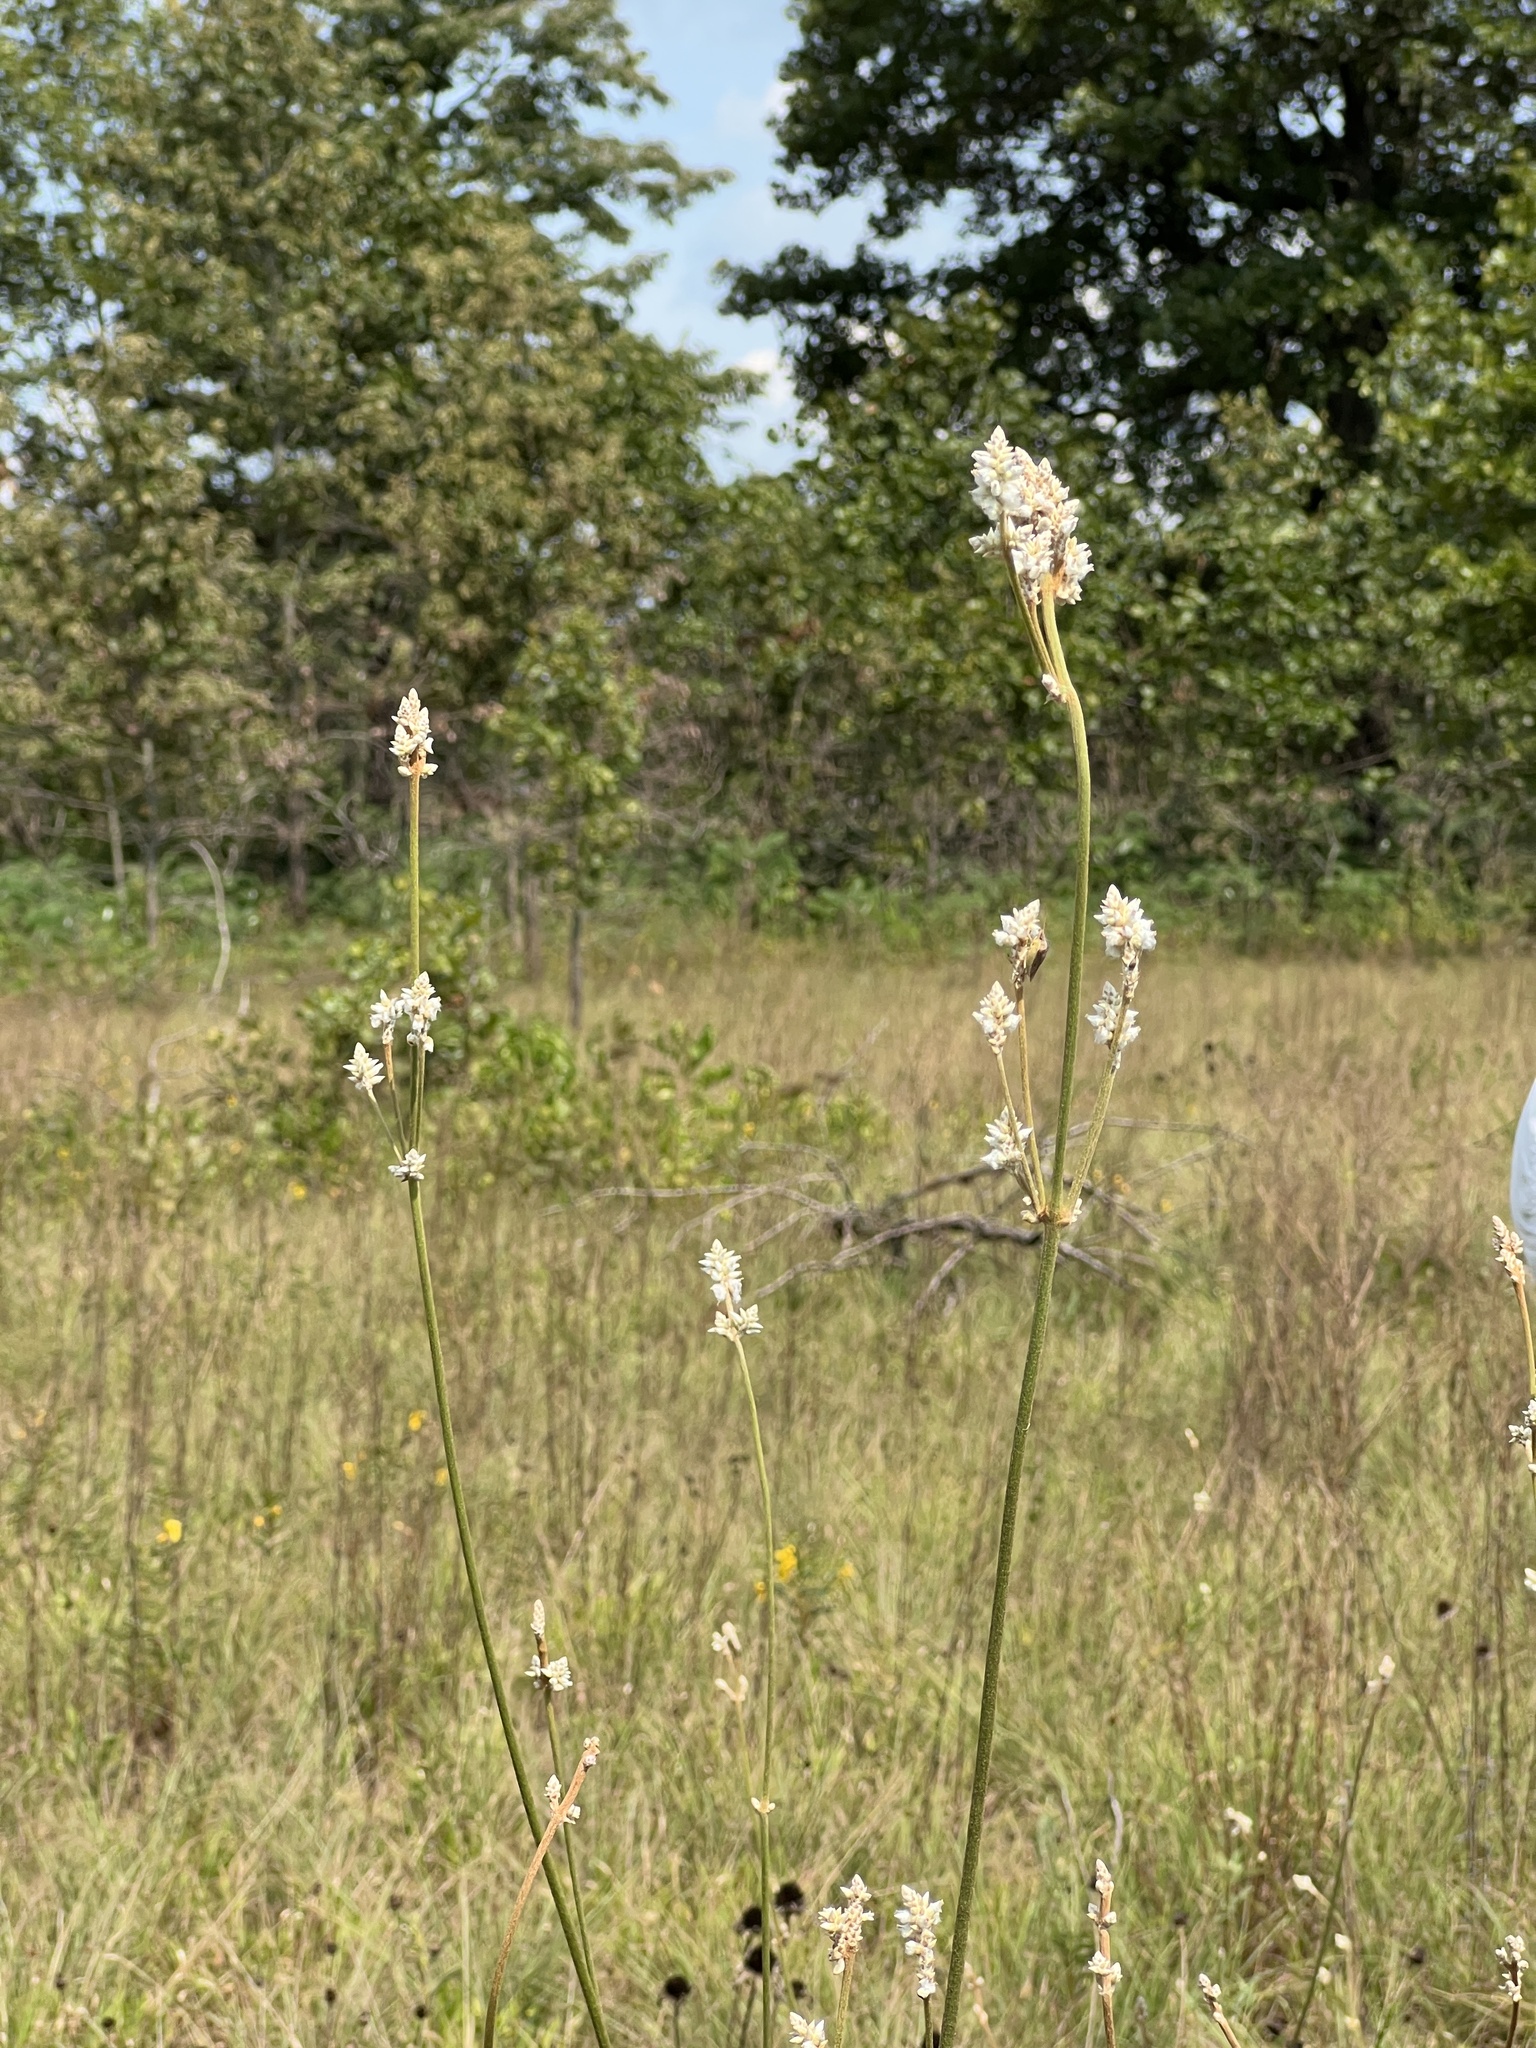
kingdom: Plantae
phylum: Tracheophyta
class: Magnoliopsida
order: Caryophyllales
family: Amaranthaceae
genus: Froelichia
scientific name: Froelichia floridana
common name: Florida snake-cotton
